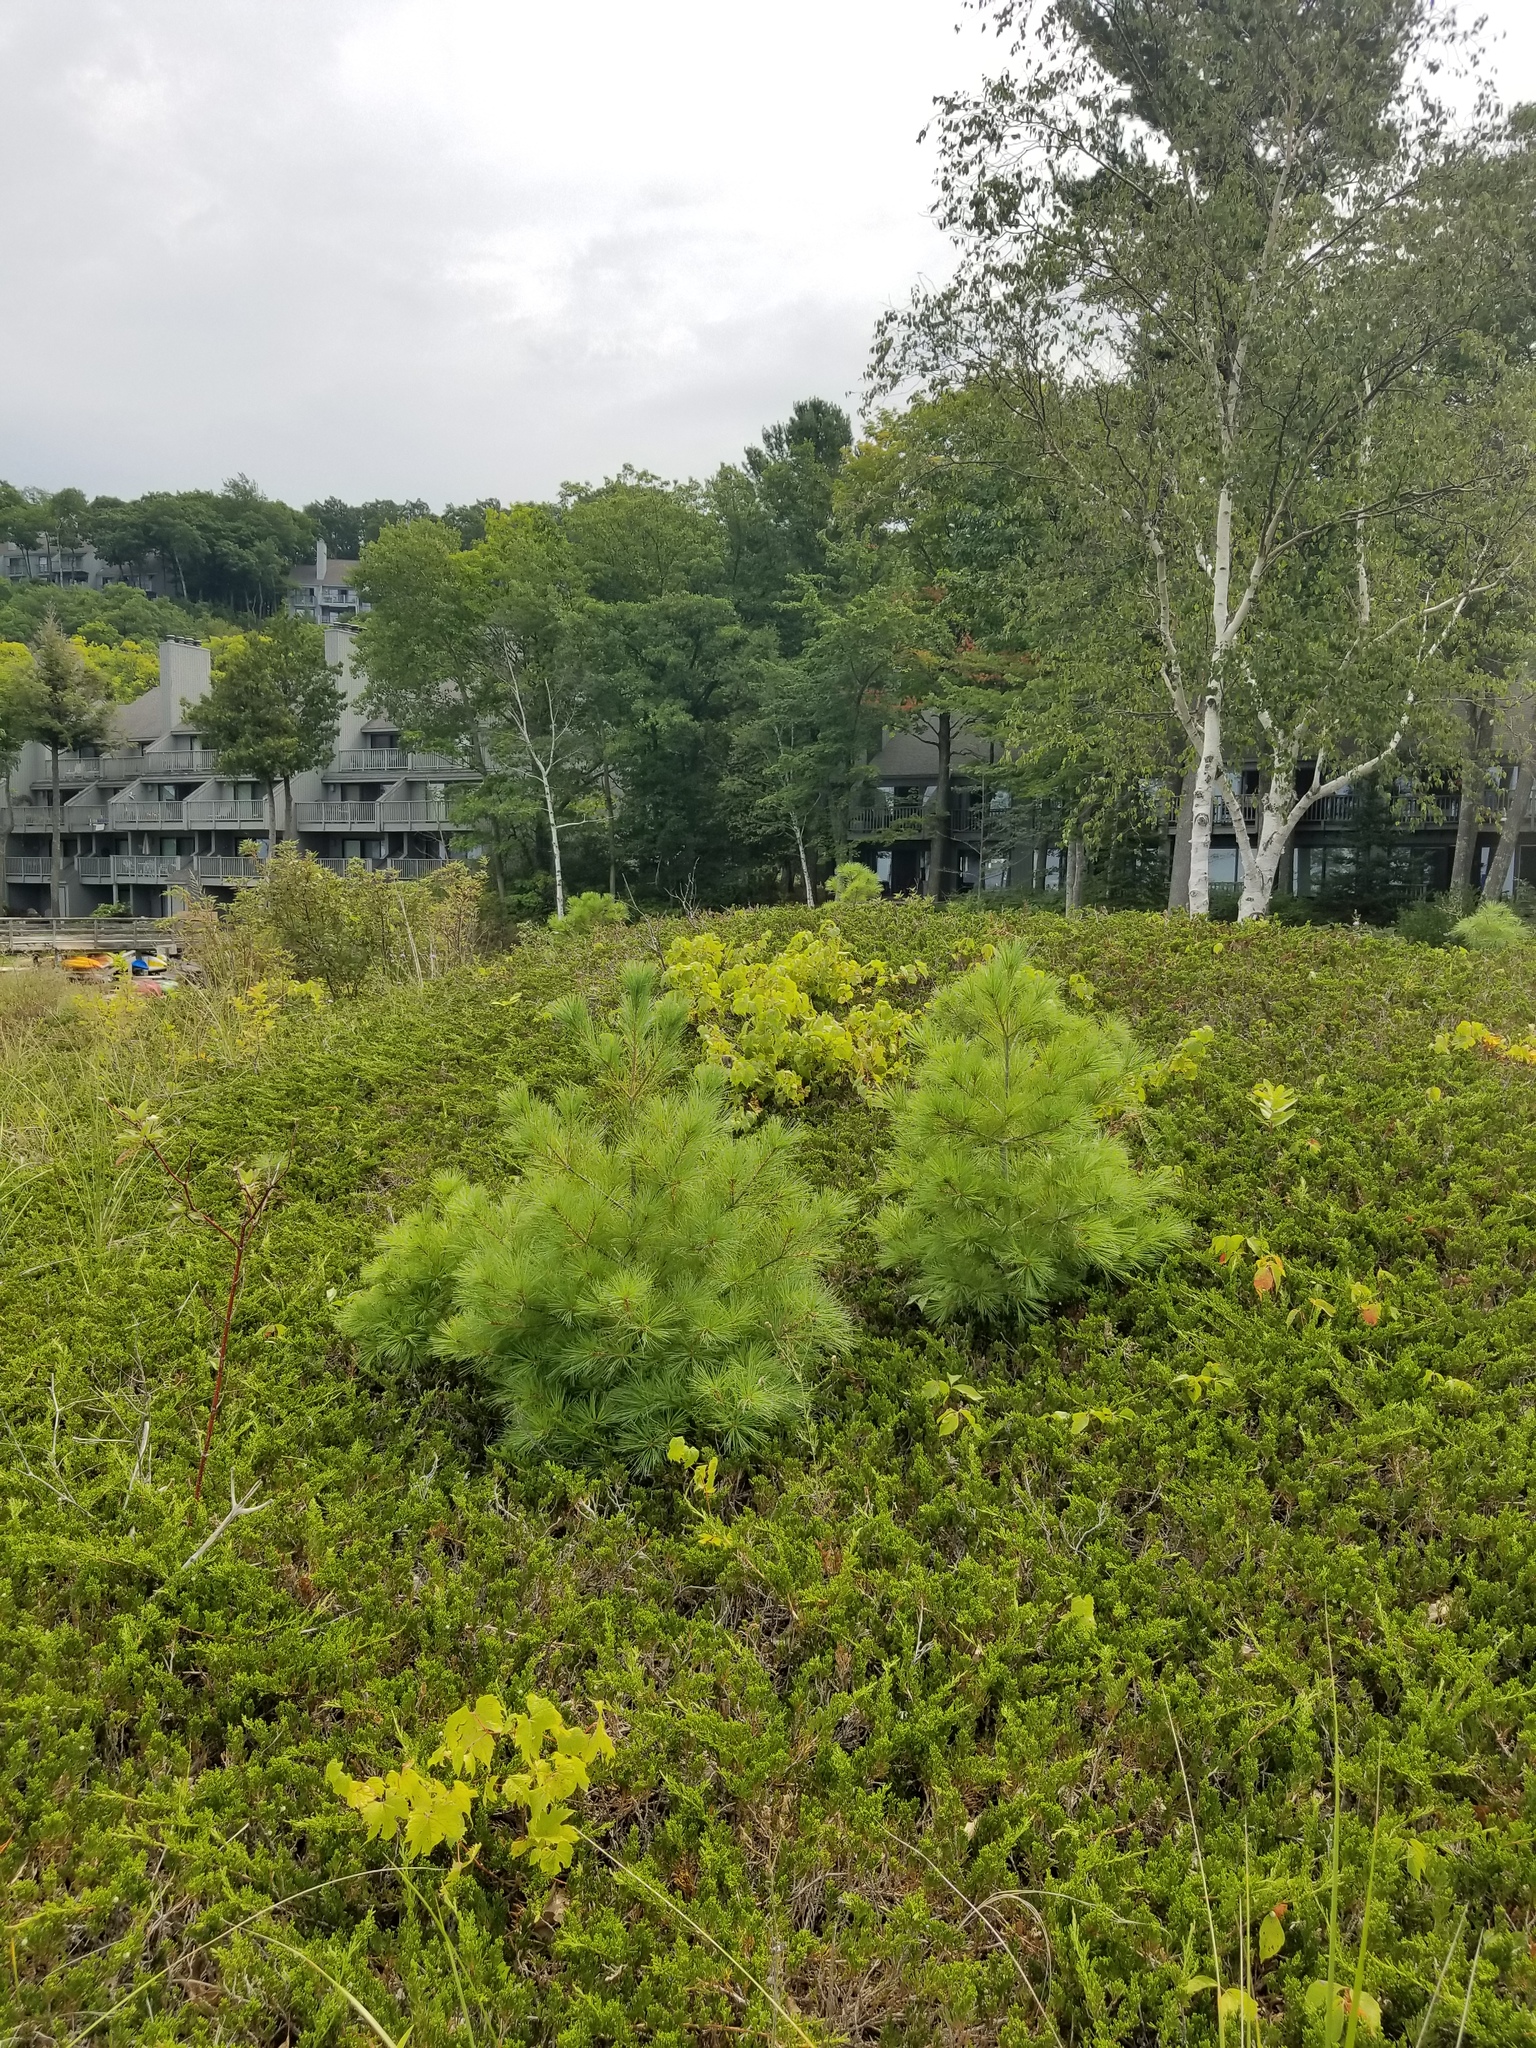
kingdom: Plantae
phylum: Tracheophyta
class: Pinopsida
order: Pinales
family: Cupressaceae
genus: Juniperus
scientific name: Juniperus horizontalis
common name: Creeping juniper
